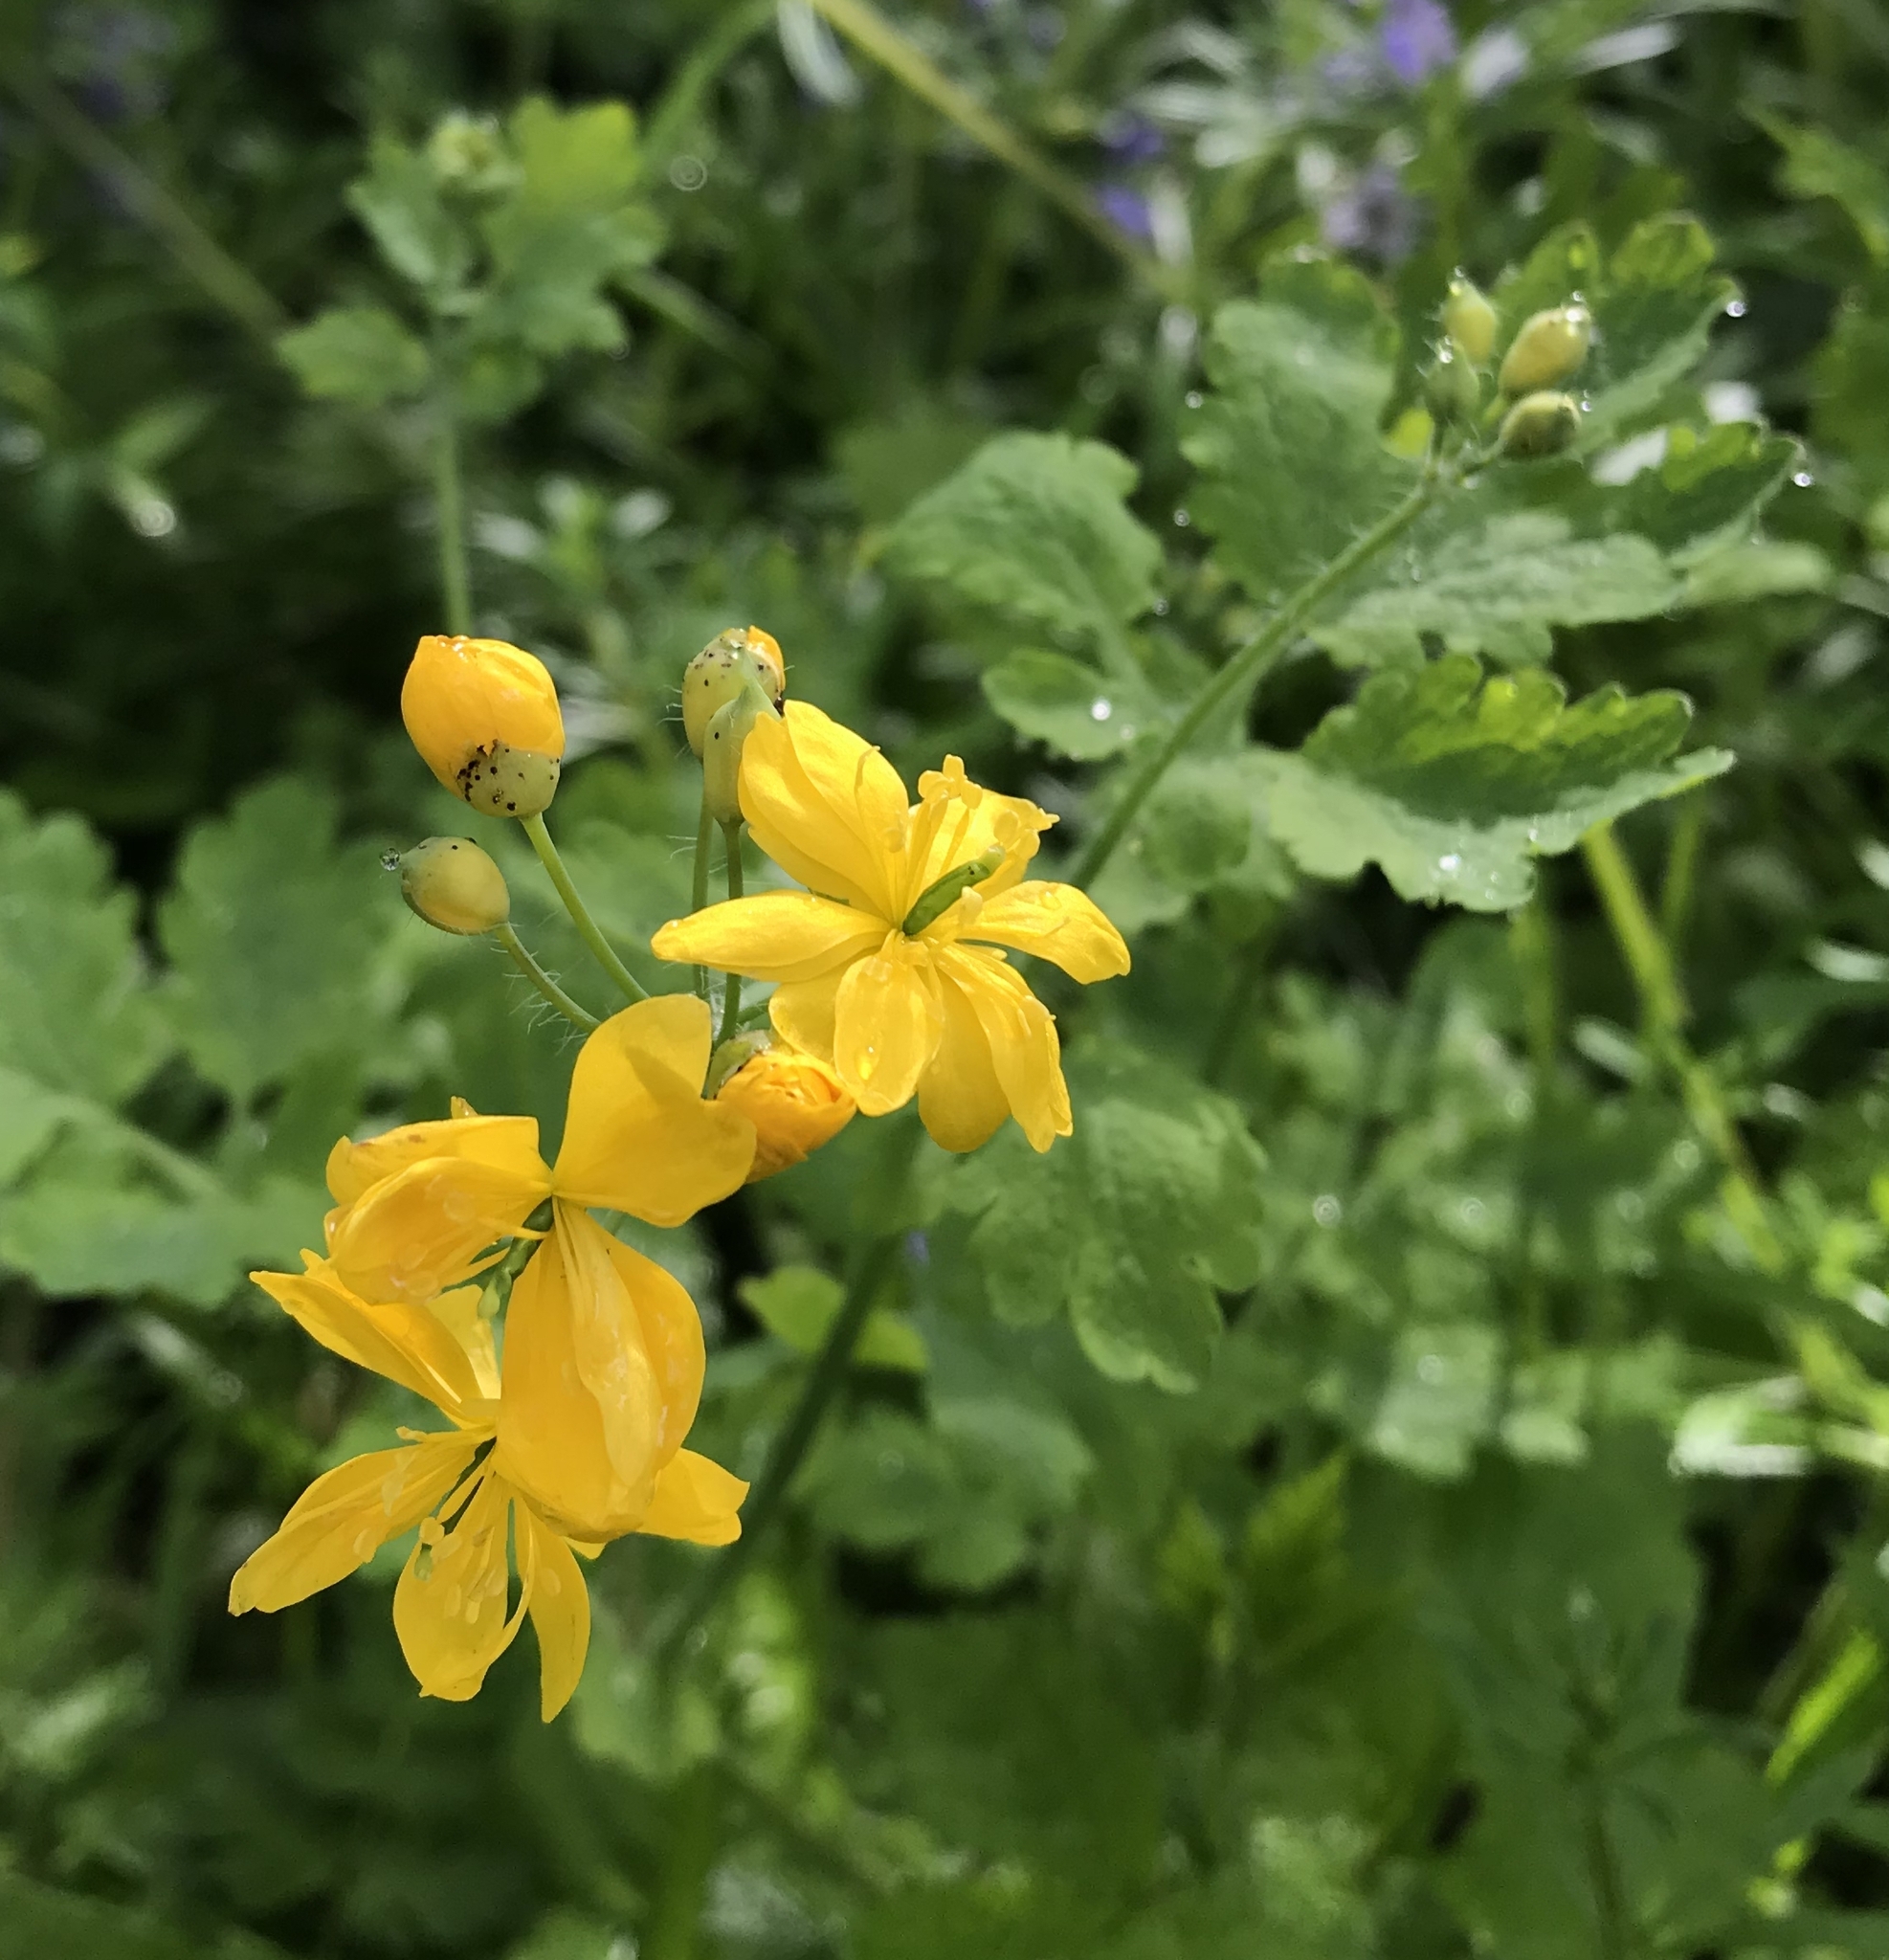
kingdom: Plantae
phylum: Tracheophyta
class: Magnoliopsida
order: Ranunculales
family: Papaveraceae
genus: Chelidonium
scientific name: Chelidonium majus
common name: Greater celandine
